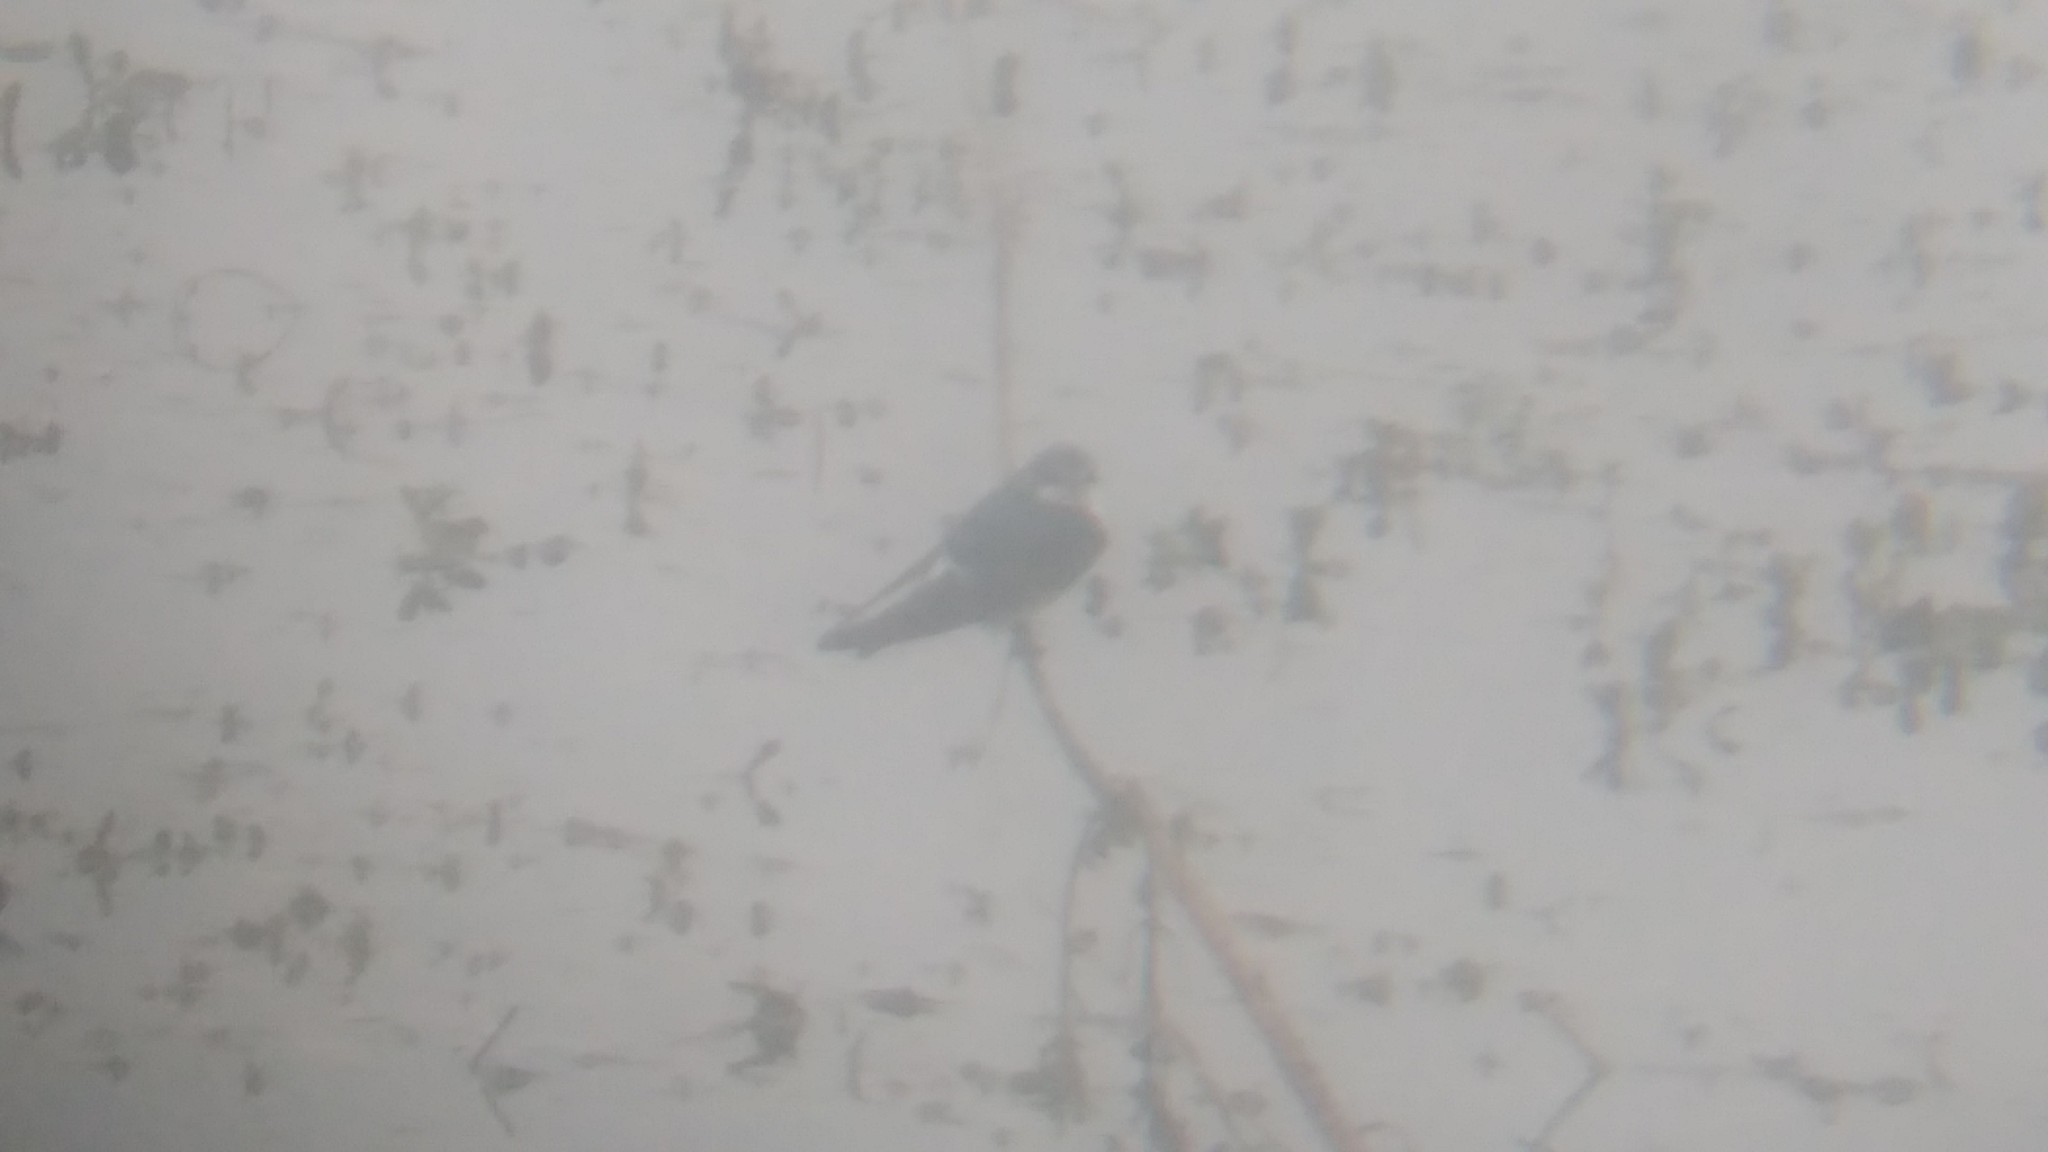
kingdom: Animalia
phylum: Chordata
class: Aves
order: Passeriformes
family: Hirundinidae
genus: Tachycineta
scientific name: Tachycineta leucorrhoa
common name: White-rumped swallow
